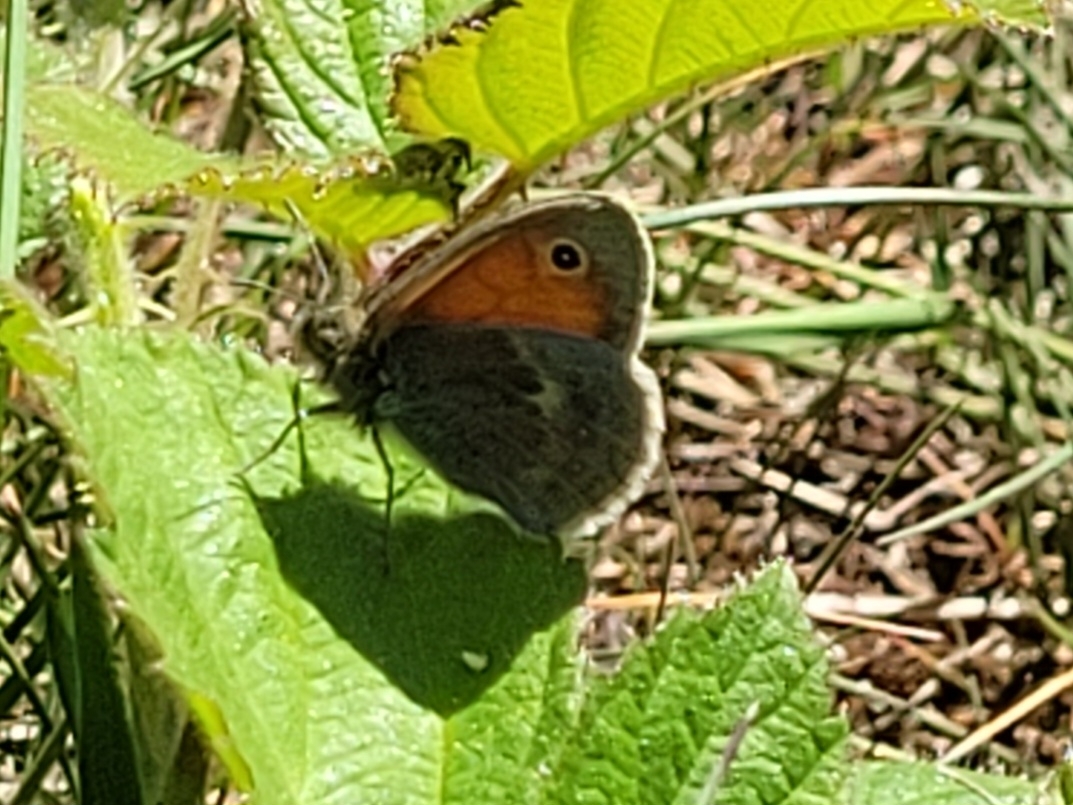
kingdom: Animalia
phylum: Arthropoda
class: Insecta
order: Lepidoptera
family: Nymphalidae
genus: Coenonympha
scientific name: Coenonympha pamphilus
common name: Small heath
